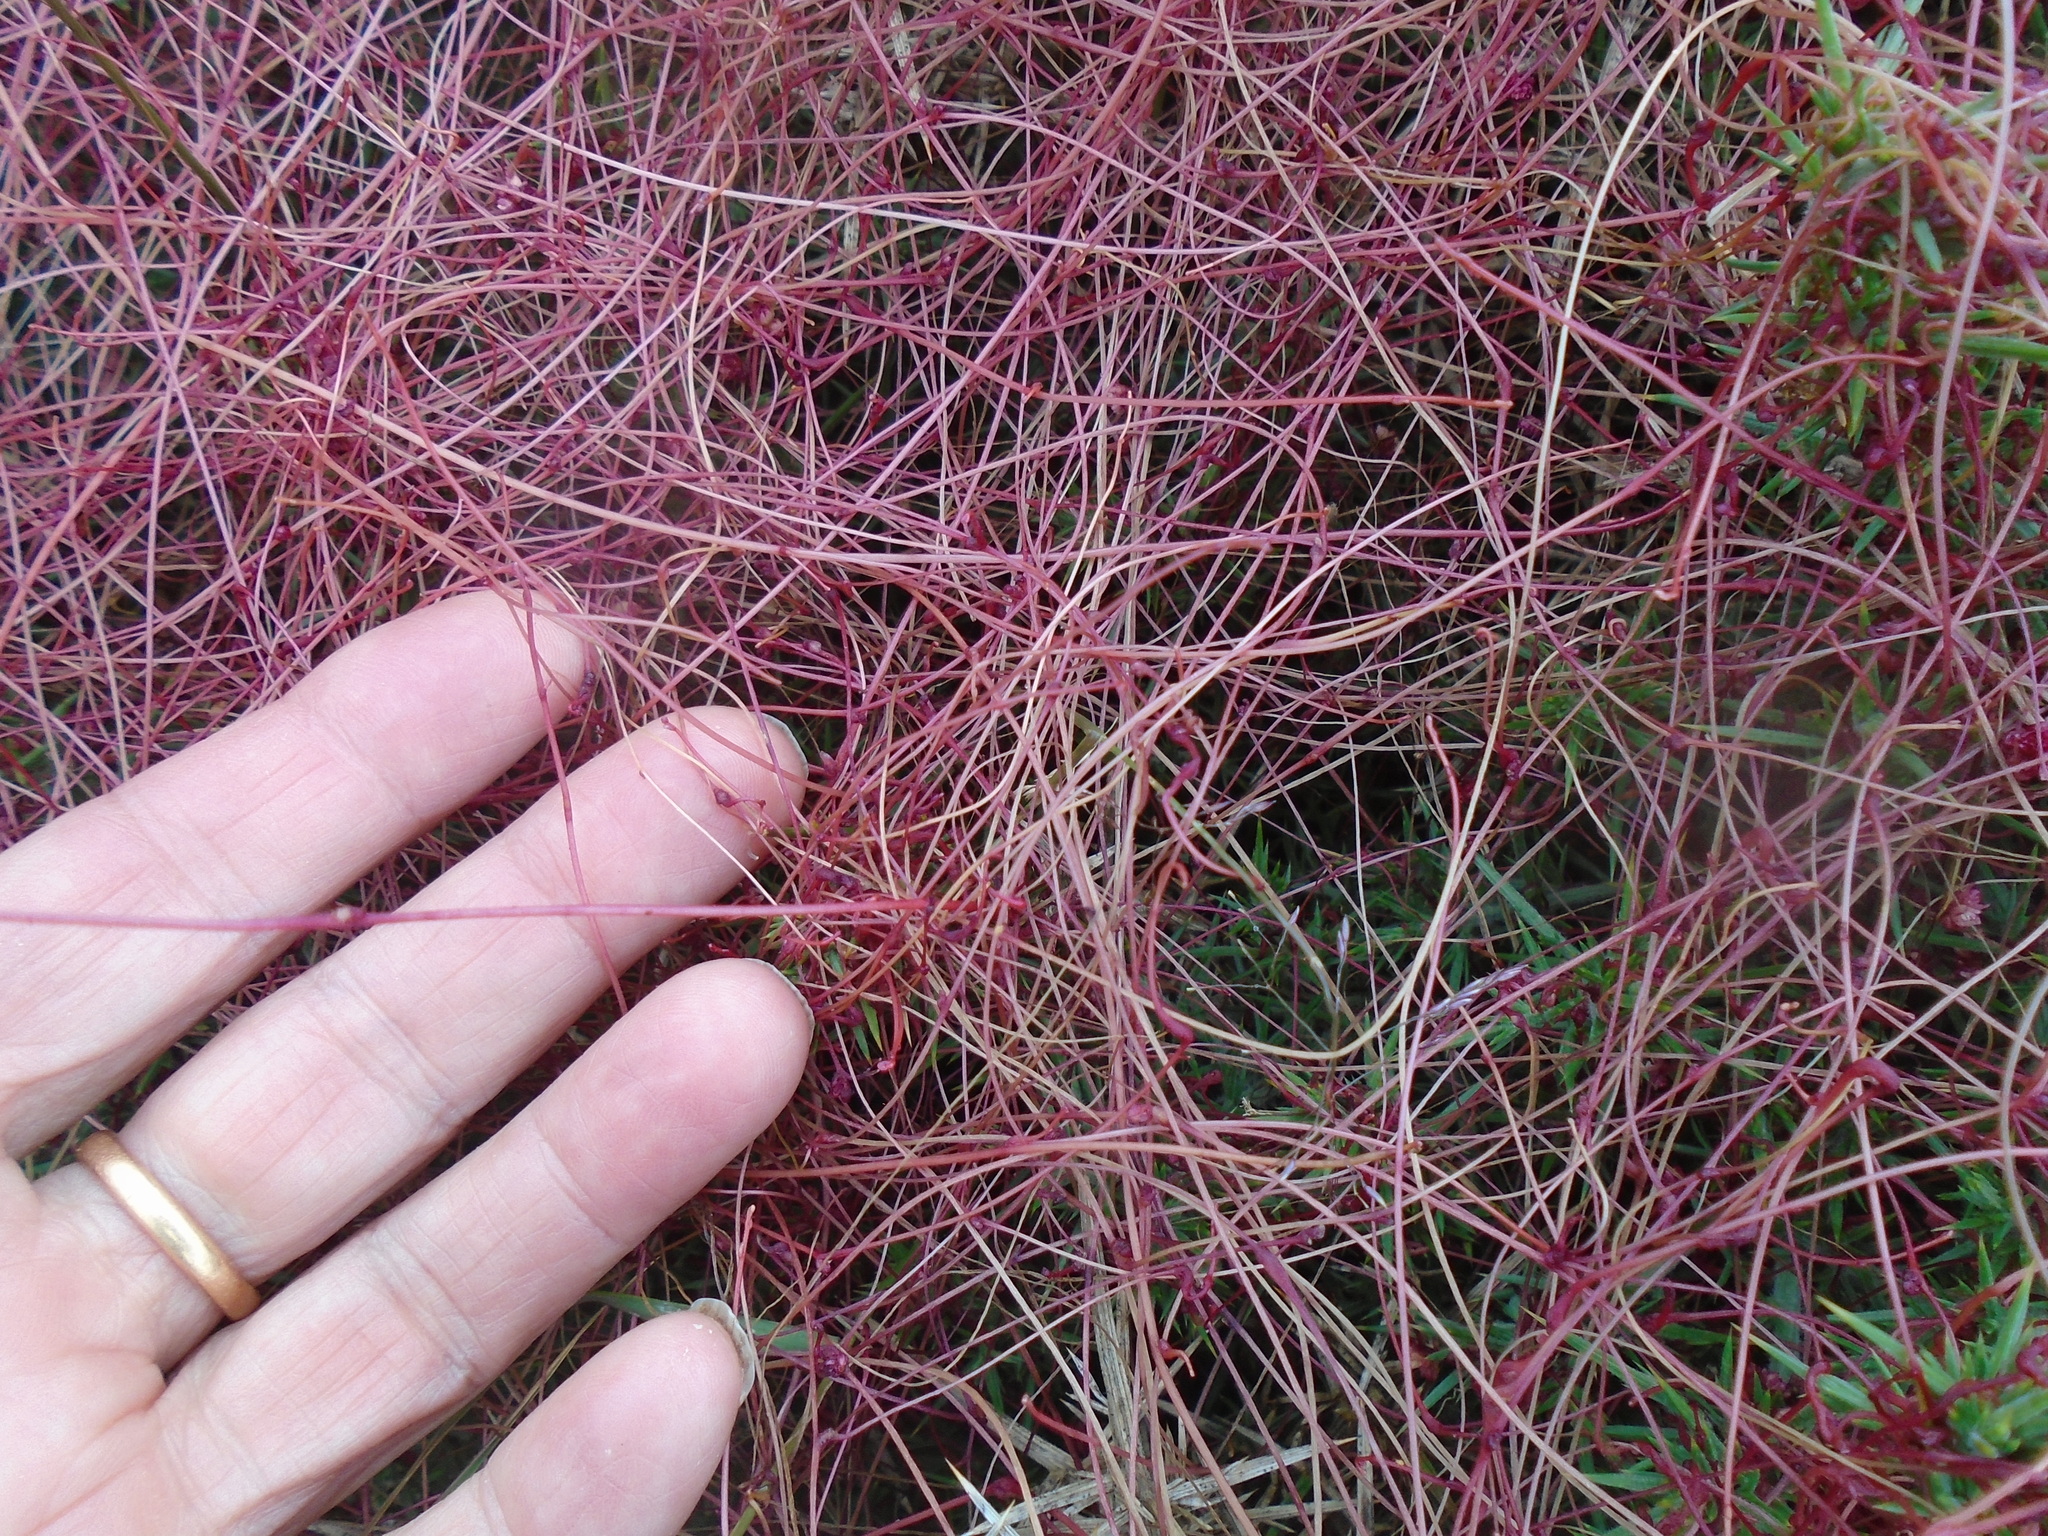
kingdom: Plantae
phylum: Tracheophyta
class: Magnoliopsida
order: Solanales
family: Convolvulaceae
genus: Cuscuta
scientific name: Cuscuta epithymum
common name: Clover dodder
